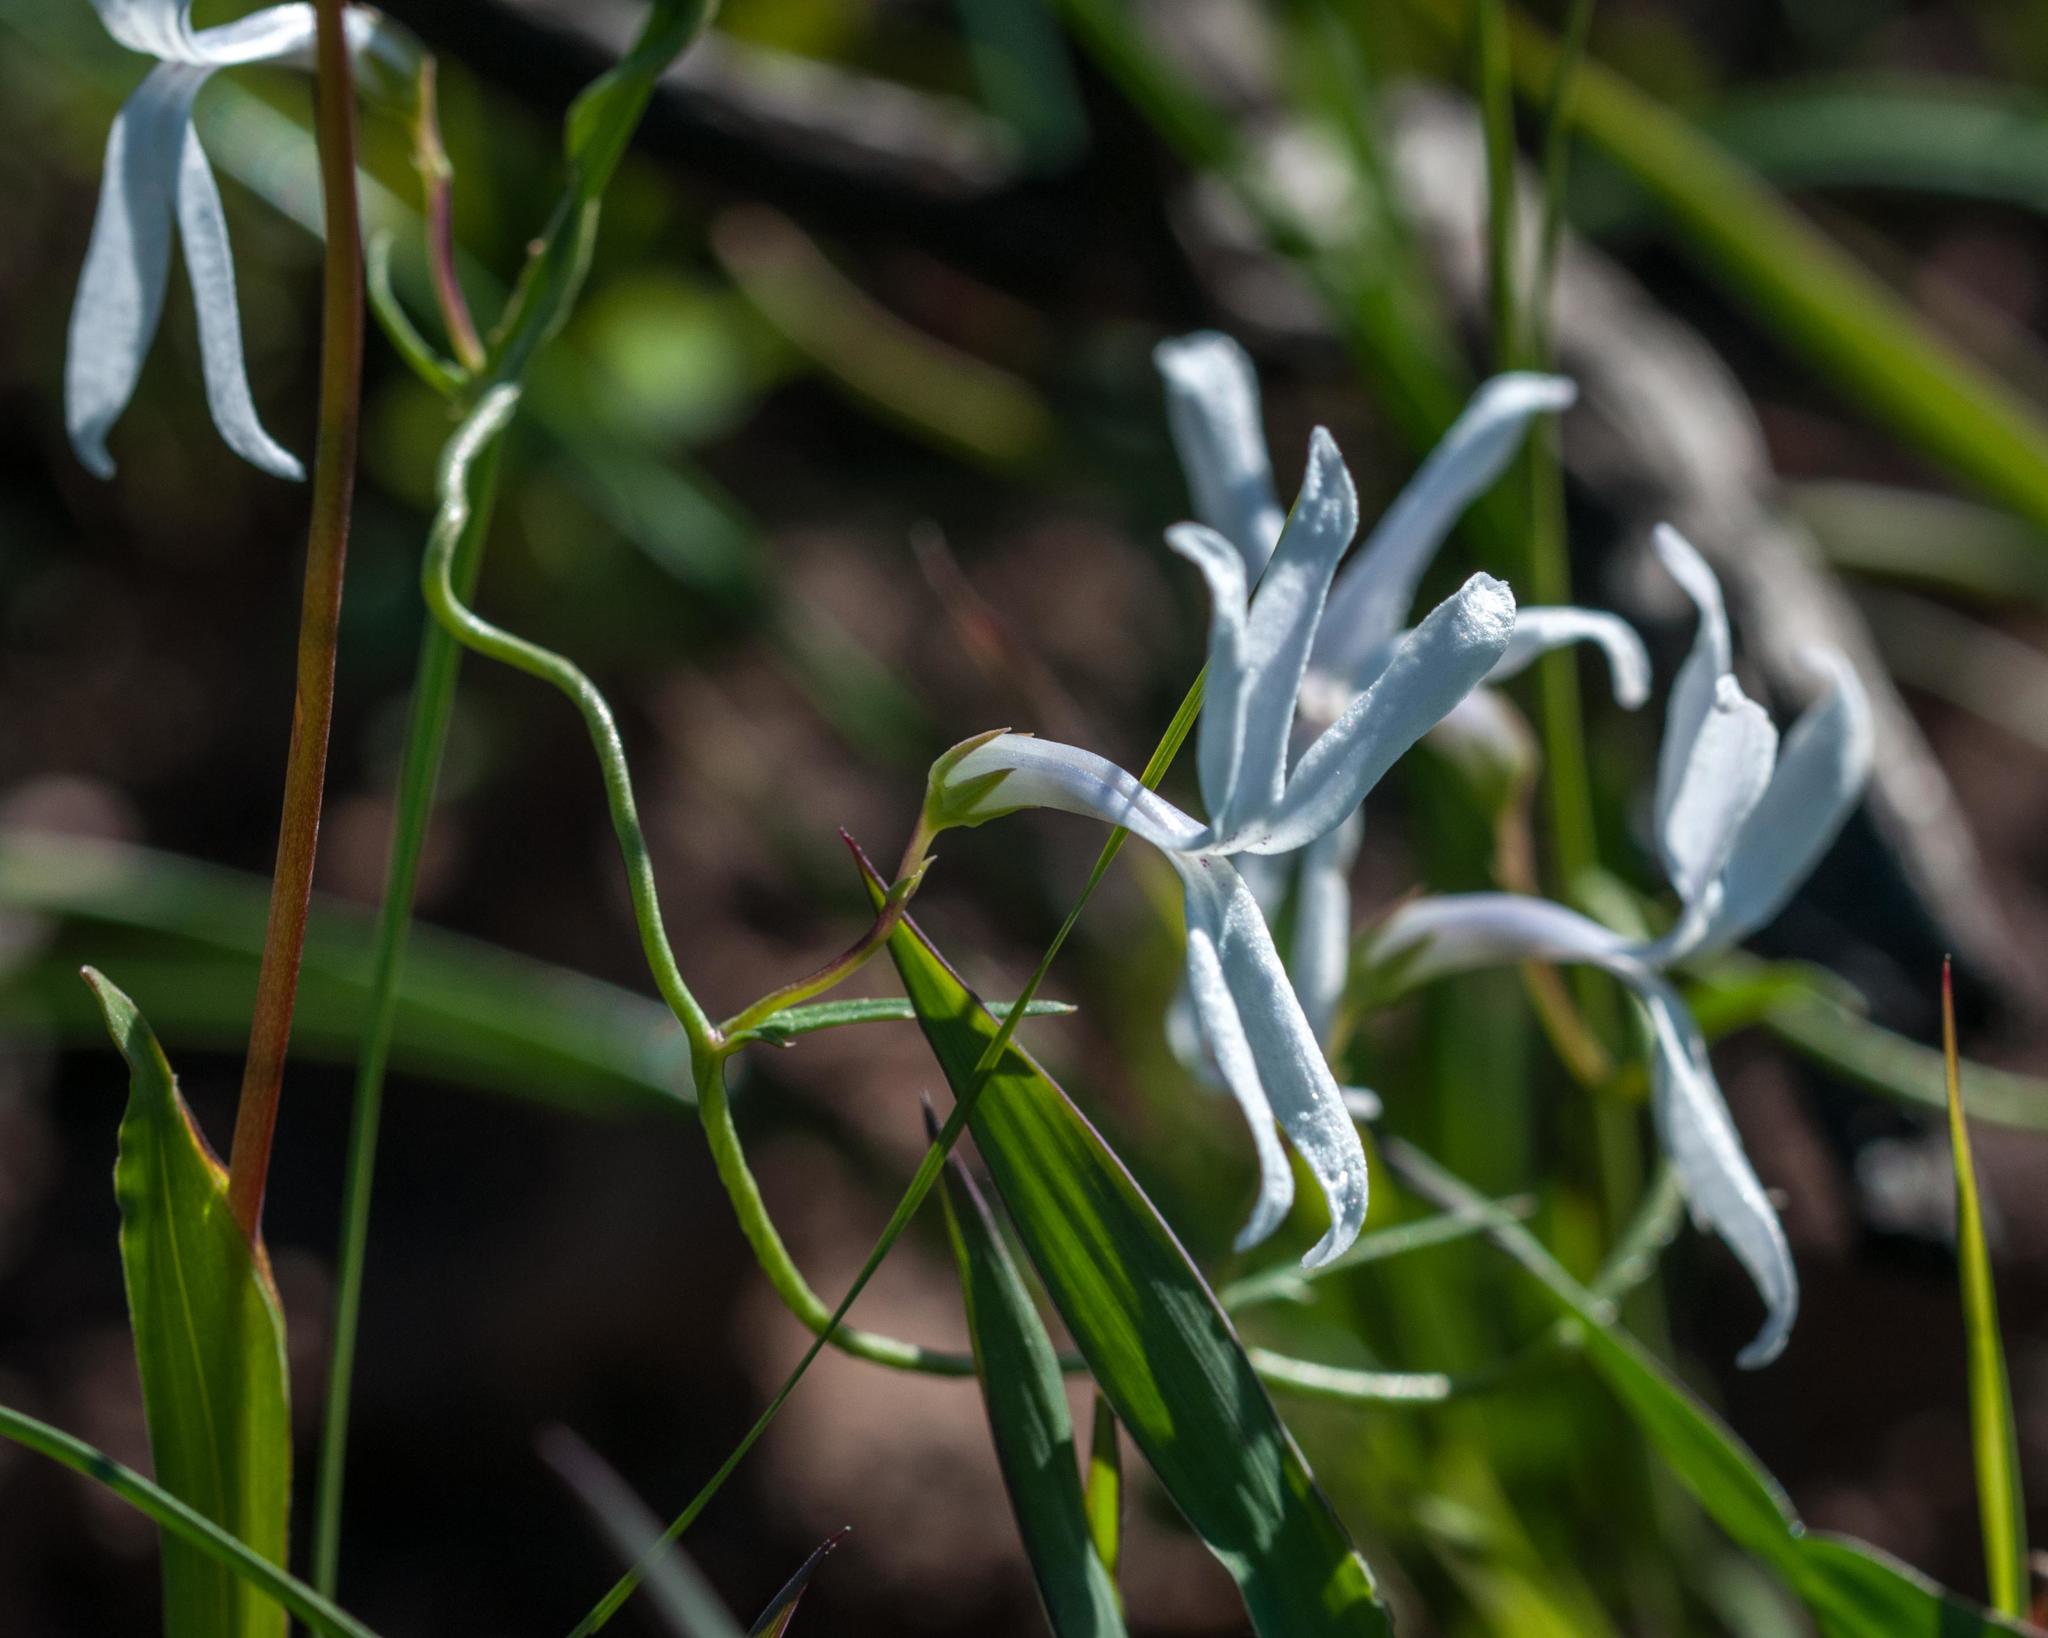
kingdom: Plantae
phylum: Tracheophyta
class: Magnoliopsida
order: Asterales
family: Campanulaceae
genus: Cyphia
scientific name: Cyphia volubilis
